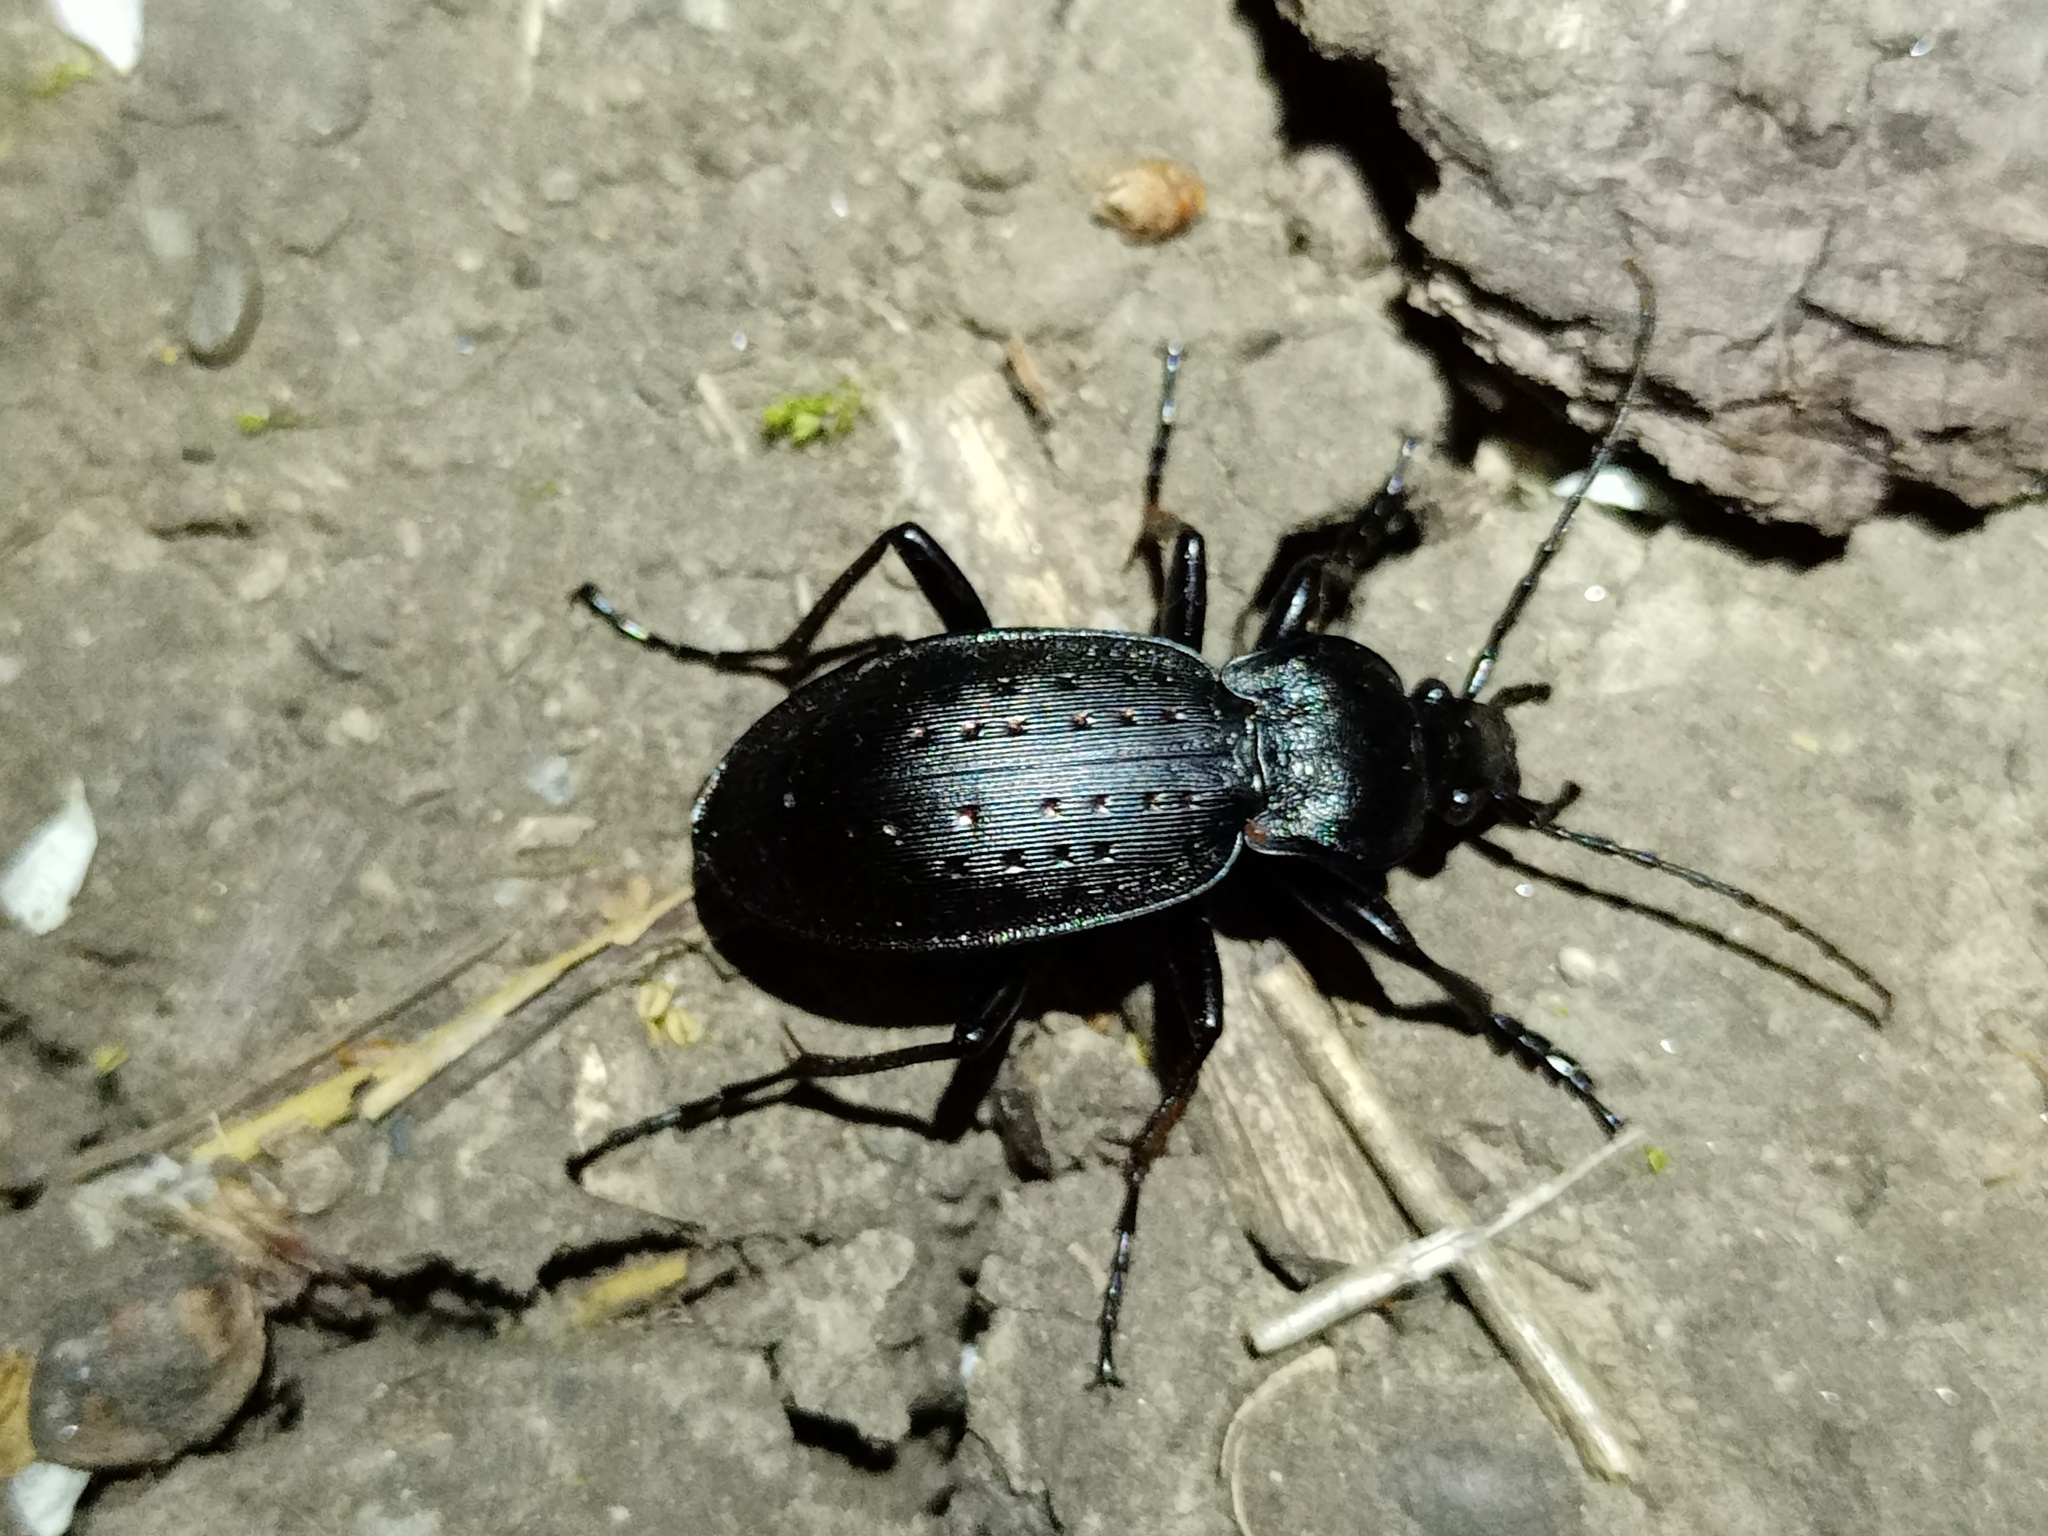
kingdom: Animalia
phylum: Arthropoda
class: Insecta
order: Coleoptera
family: Carabidae
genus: Carabus
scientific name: Carabus hortensis
